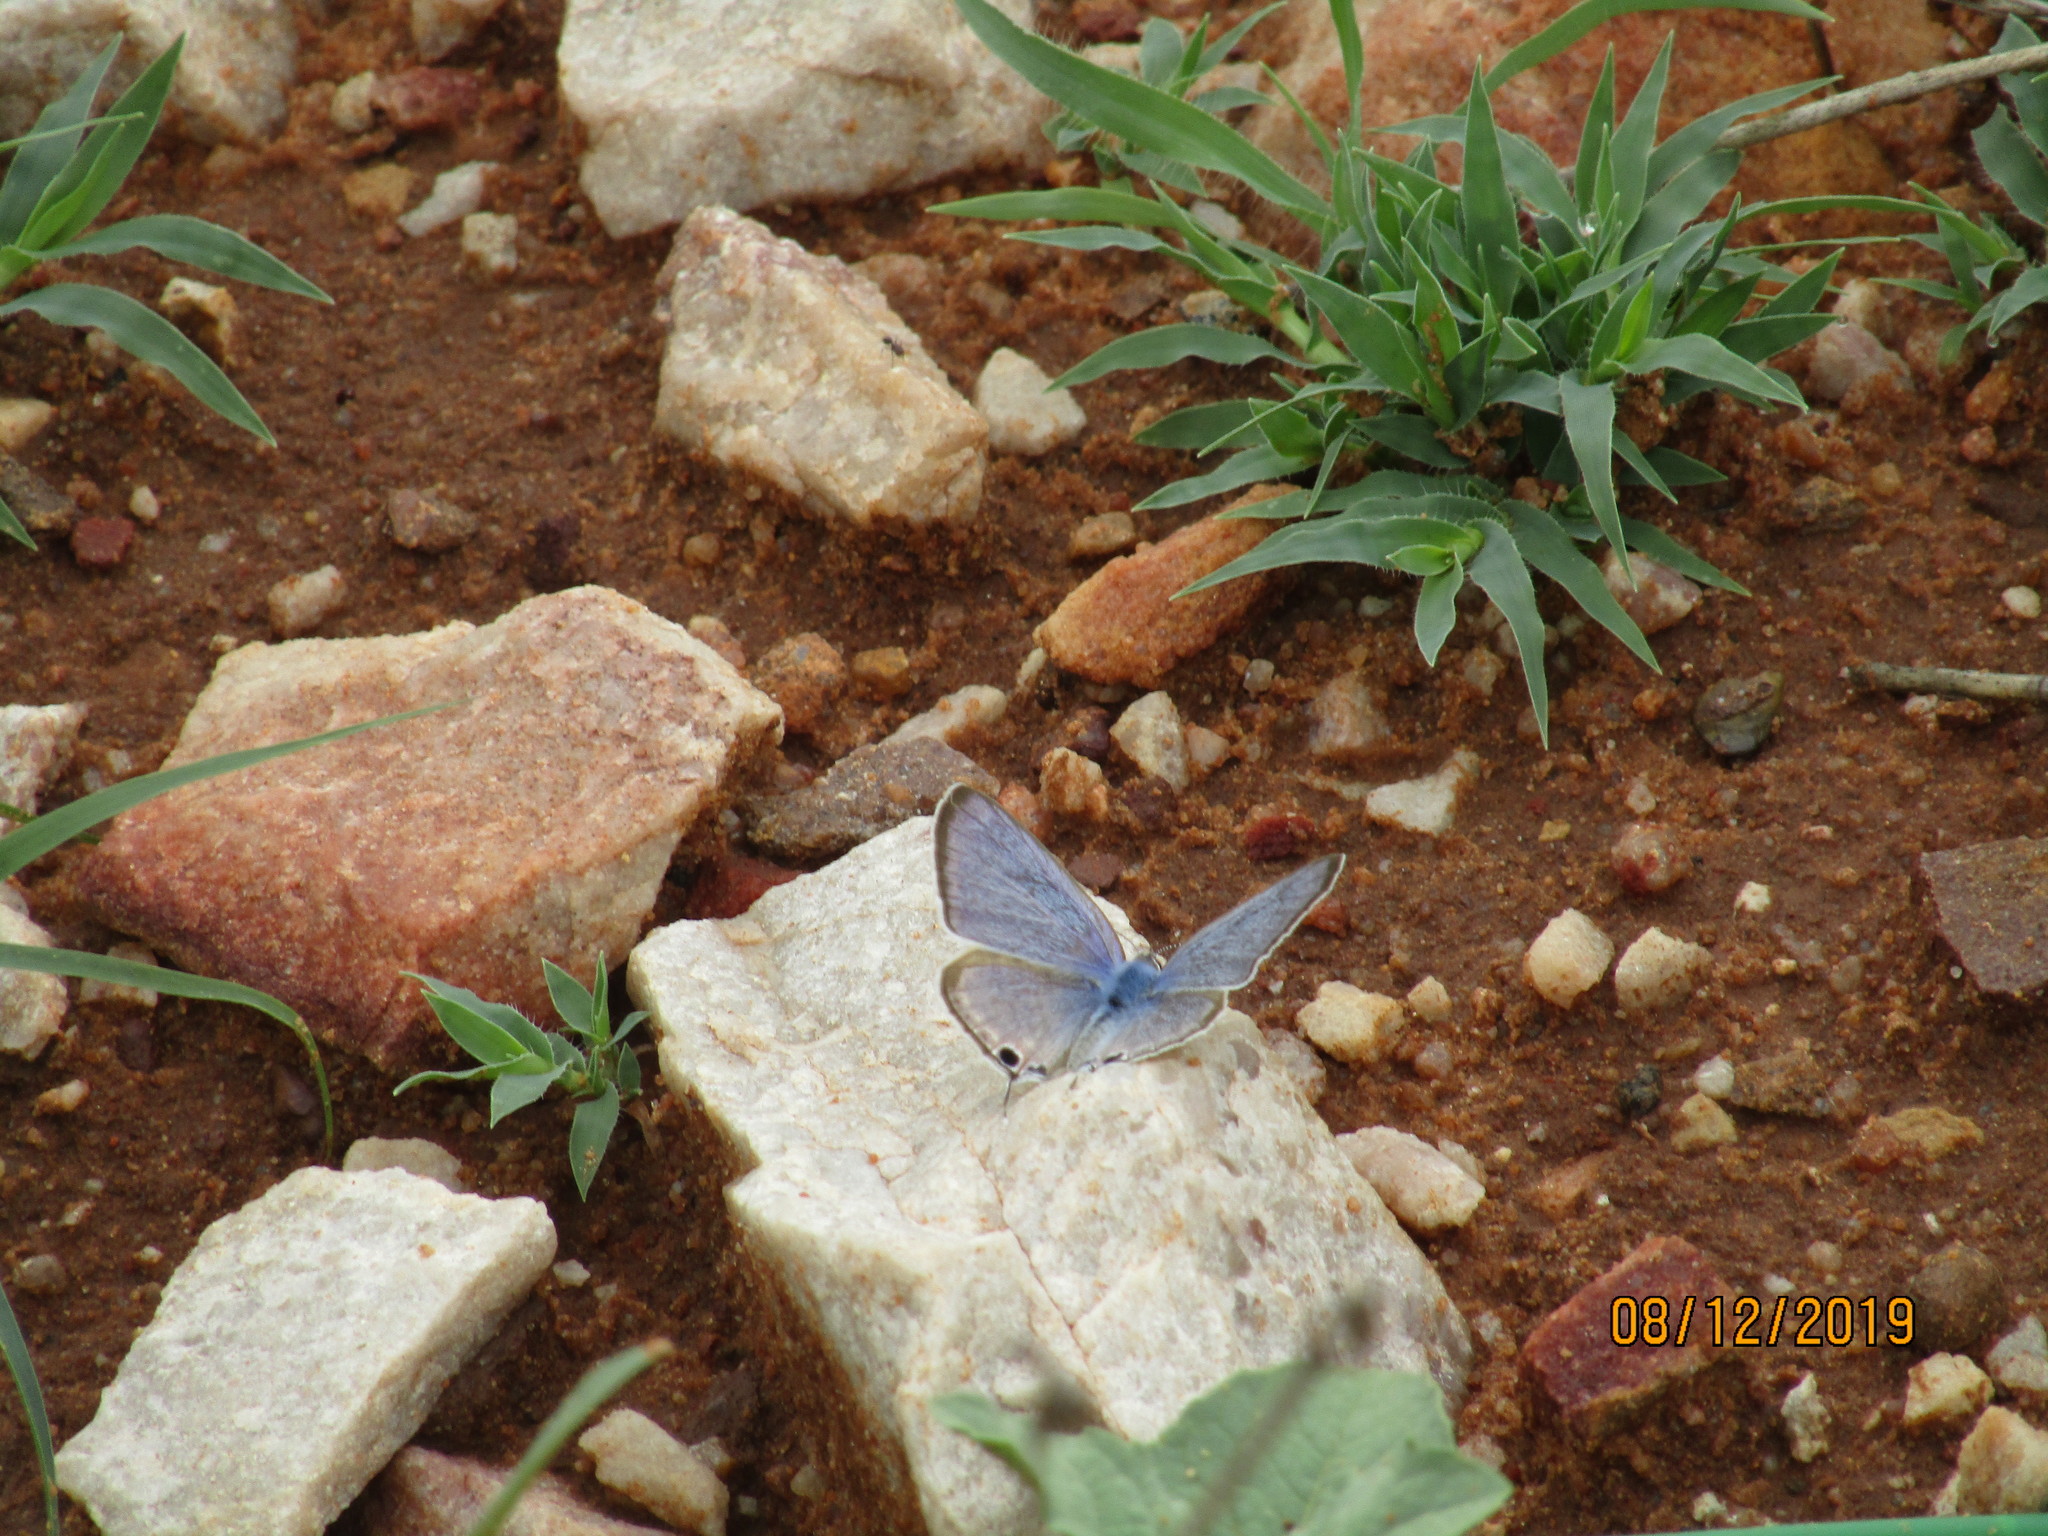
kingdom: Animalia
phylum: Arthropoda
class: Insecta
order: Lepidoptera
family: Lycaenidae
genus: Lampides
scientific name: Lampides boeticus
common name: Long-tailed blue
